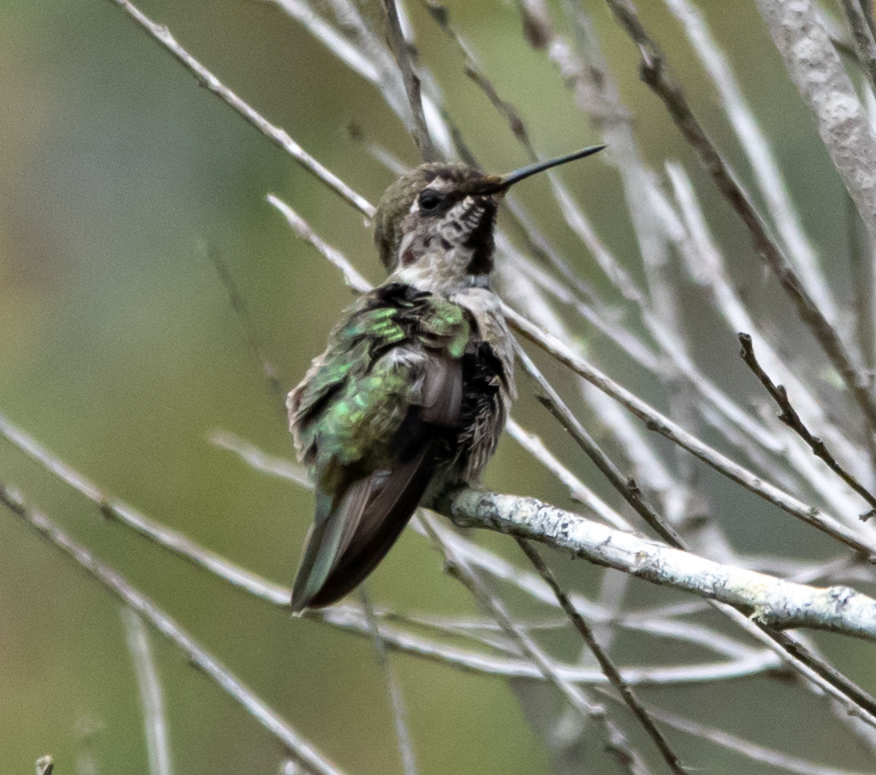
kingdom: Animalia
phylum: Chordata
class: Aves
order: Apodiformes
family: Trochilidae
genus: Calypte
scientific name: Calypte anna
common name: Anna's hummingbird
